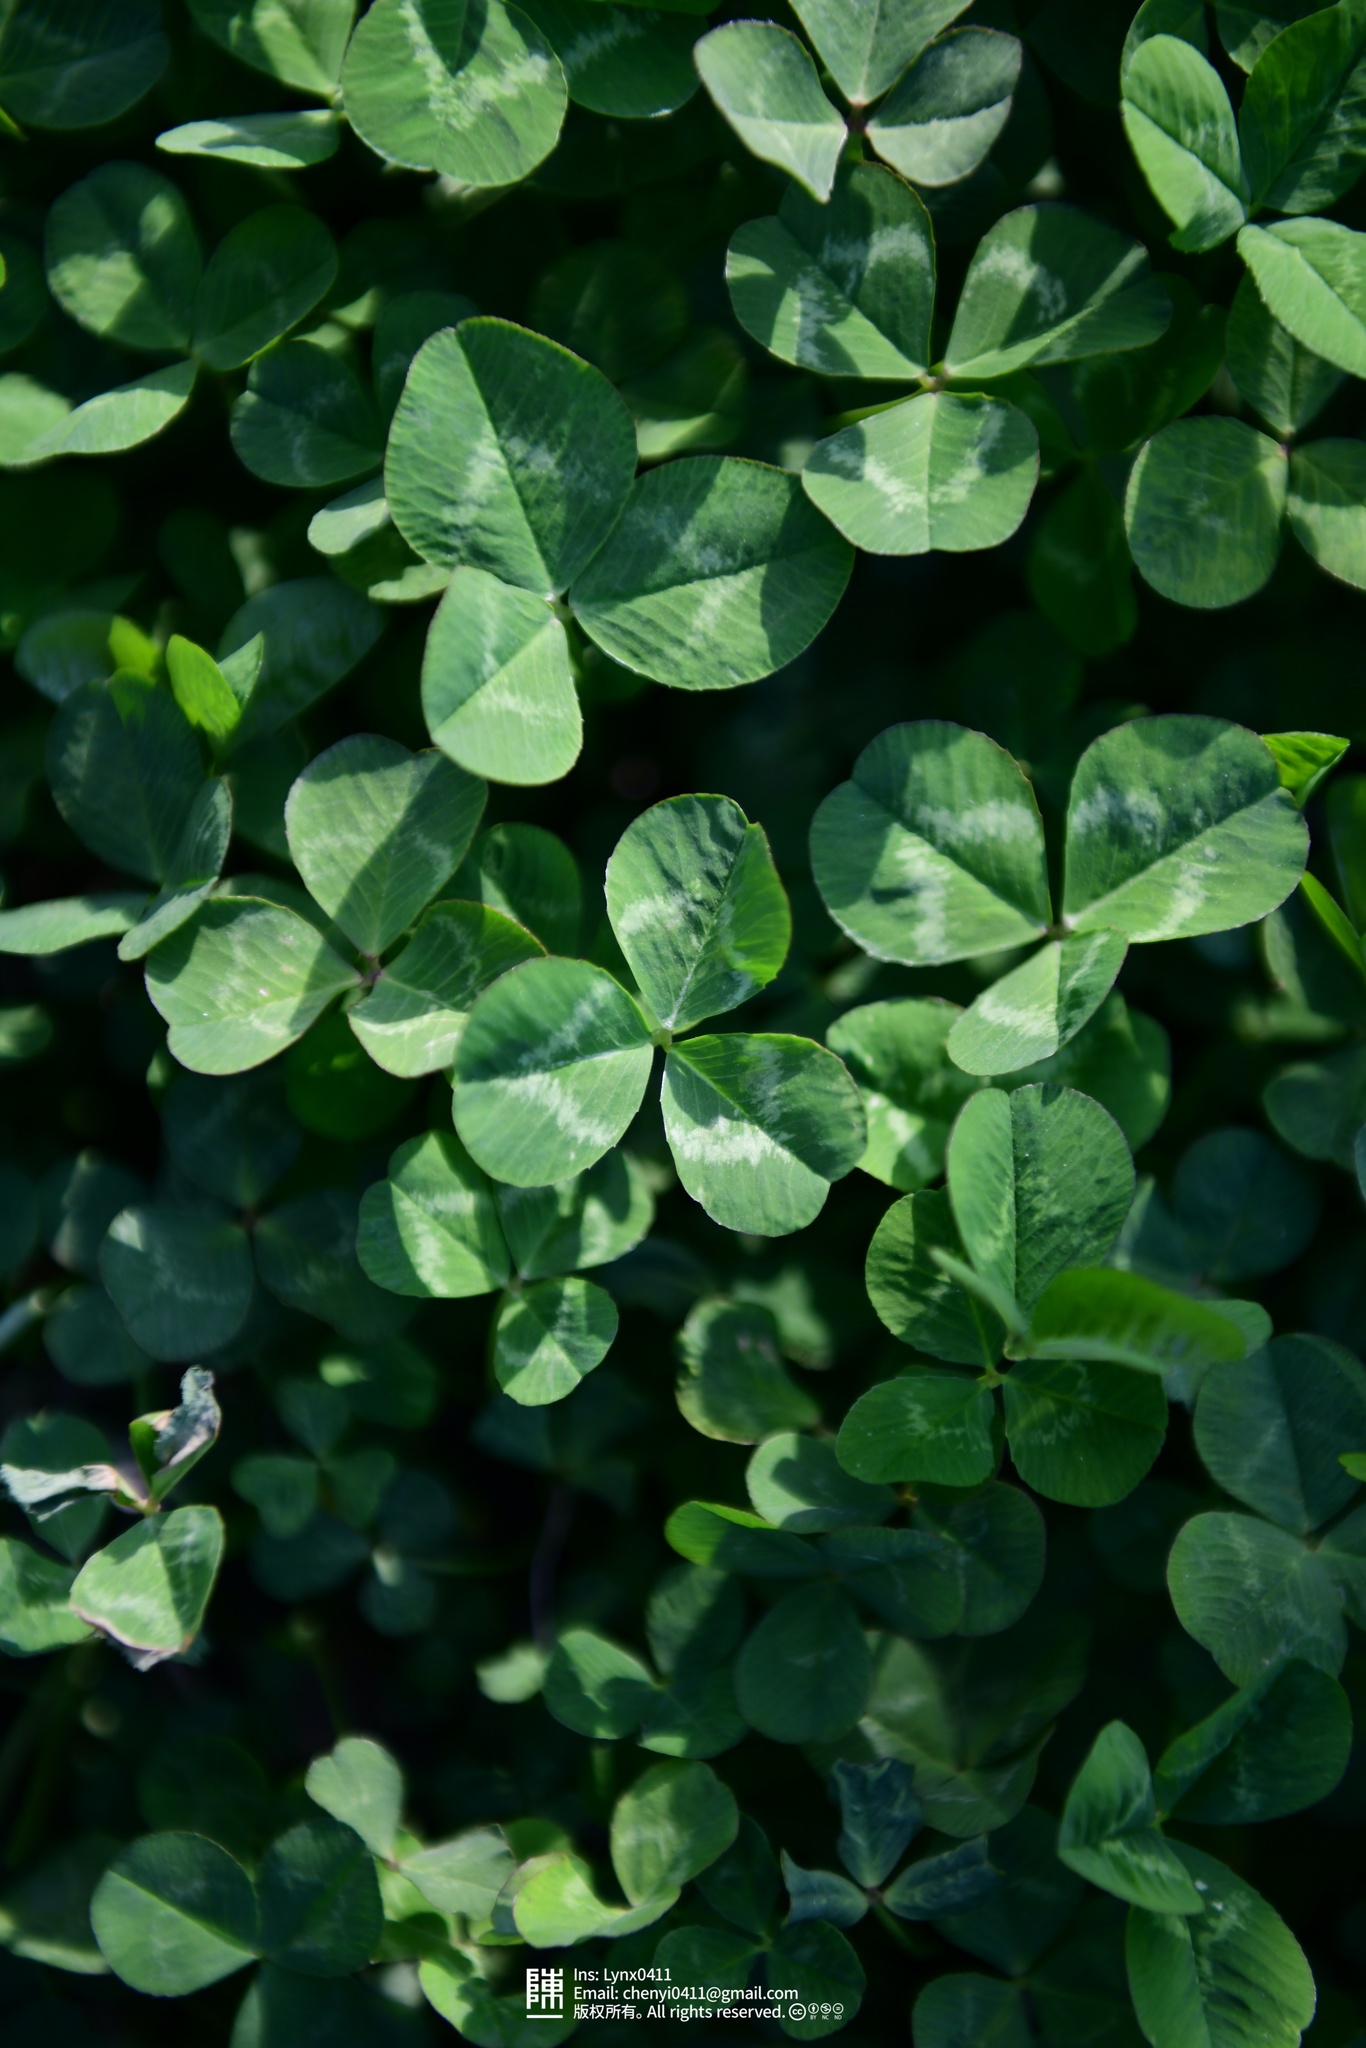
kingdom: Plantae
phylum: Tracheophyta
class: Magnoliopsida
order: Fabales
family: Fabaceae
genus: Trifolium
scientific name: Trifolium repens
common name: White clover
